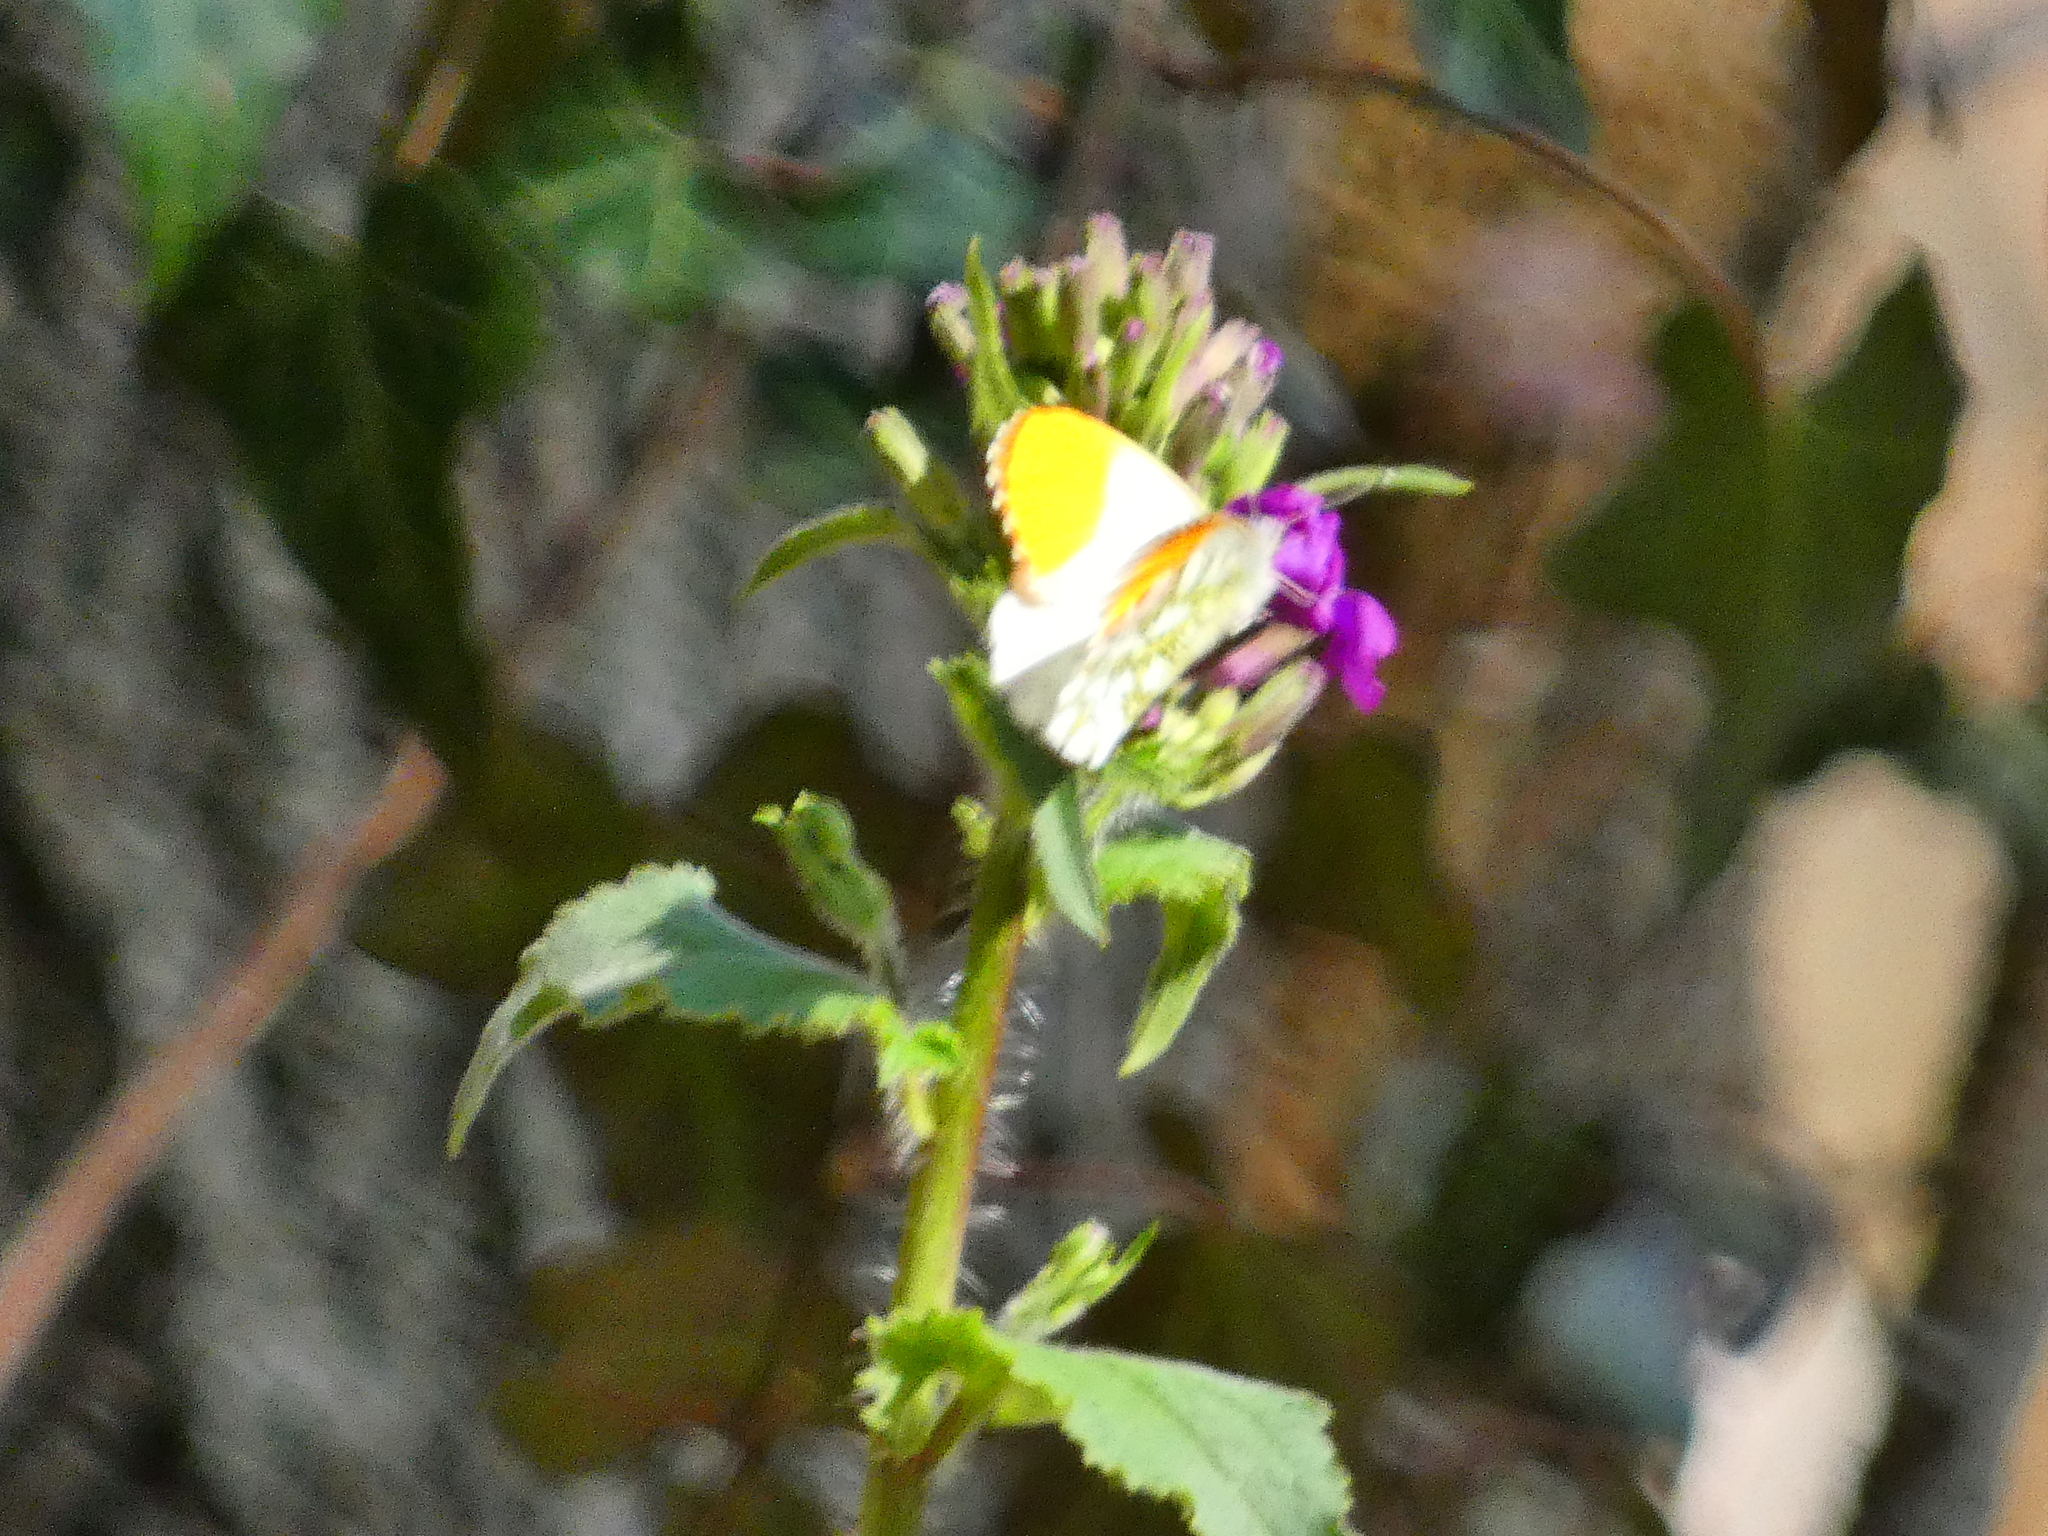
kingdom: Animalia
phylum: Arthropoda
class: Insecta
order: Lepidoptera
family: Pieridae
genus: Anthocharis
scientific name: Anthocharis cardamines
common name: Orange-tip
